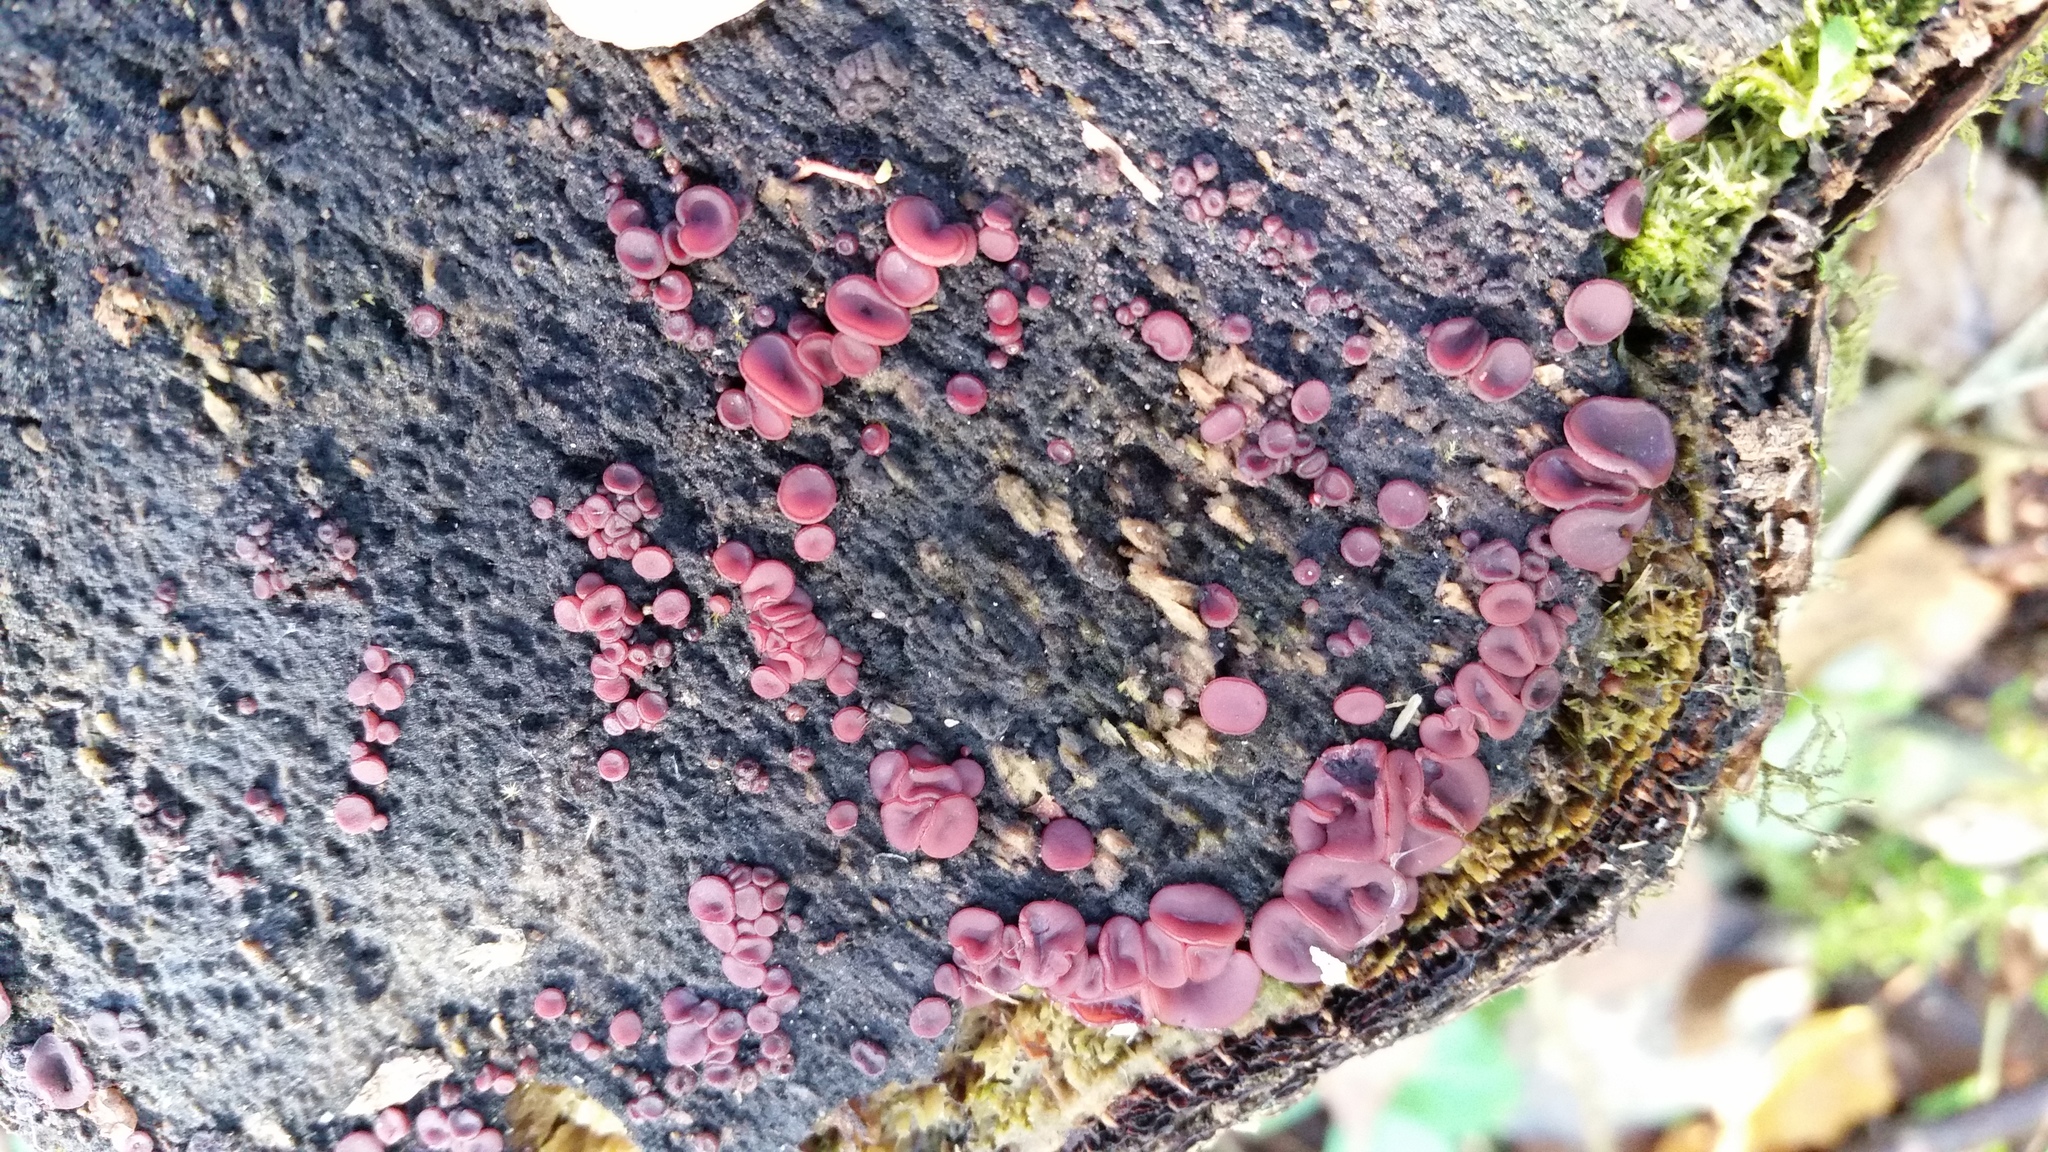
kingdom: Fungi
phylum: Ascomycota
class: Leotiomycetes
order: Helotiales
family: Gelatinodiscaceae
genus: Ascocoryne
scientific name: Ascocoryne cylichnium
